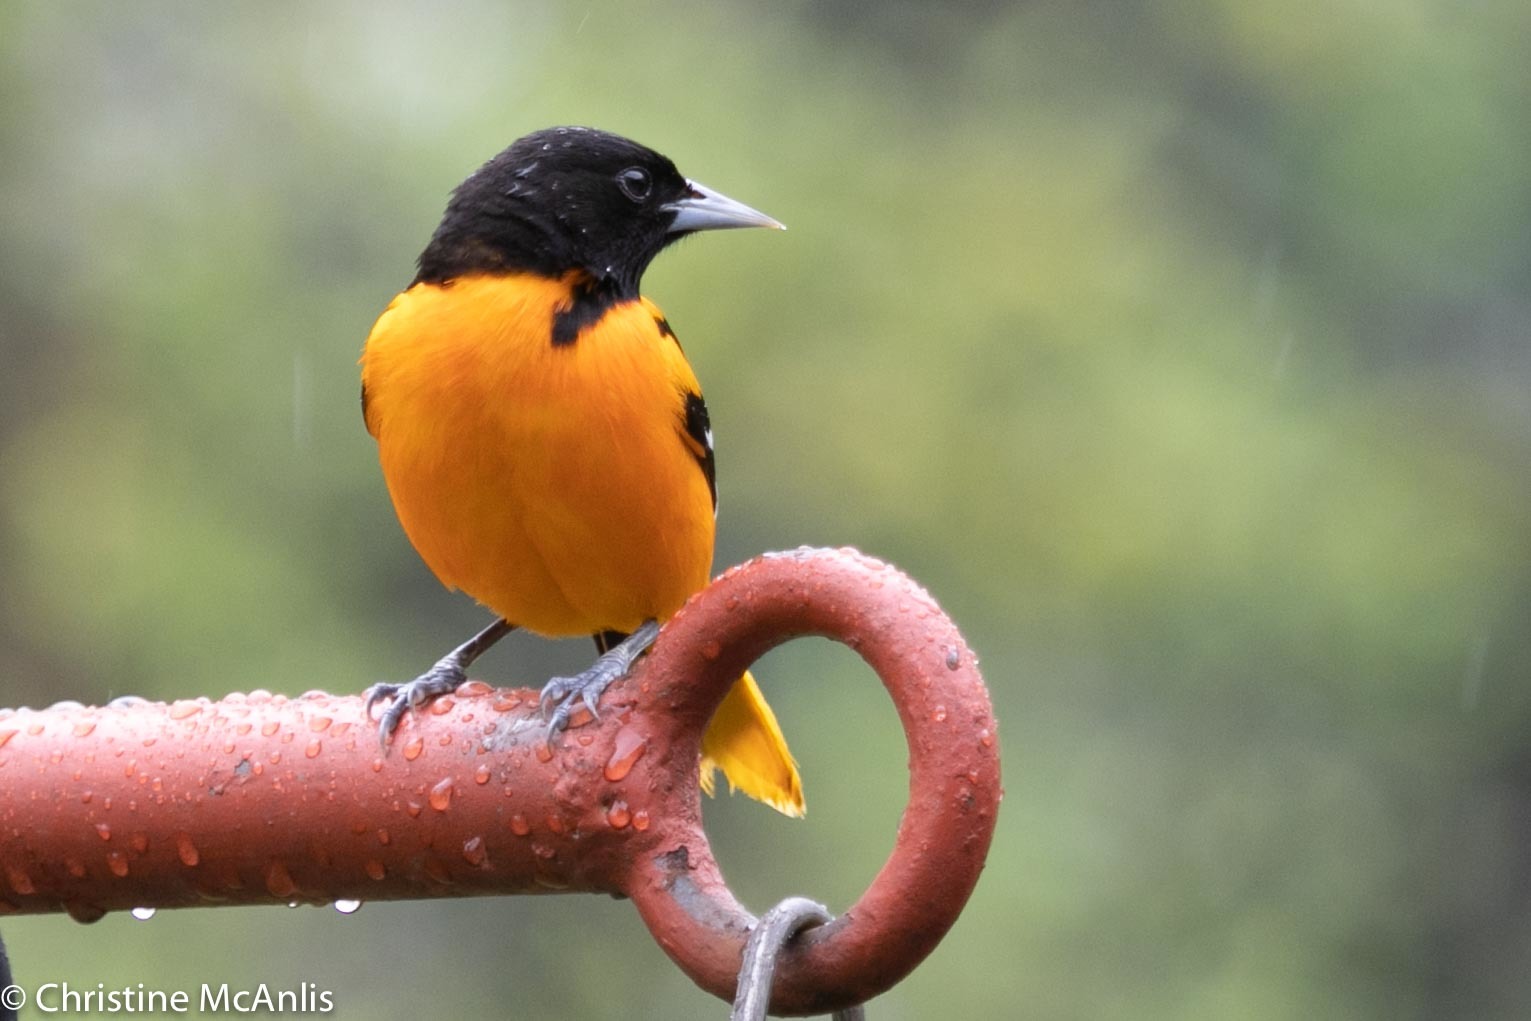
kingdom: Animalia
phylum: Chordata
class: Aves
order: Passeriformes
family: Icteridae
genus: Icterus
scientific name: Icterus galbula
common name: Baltimore oriole
